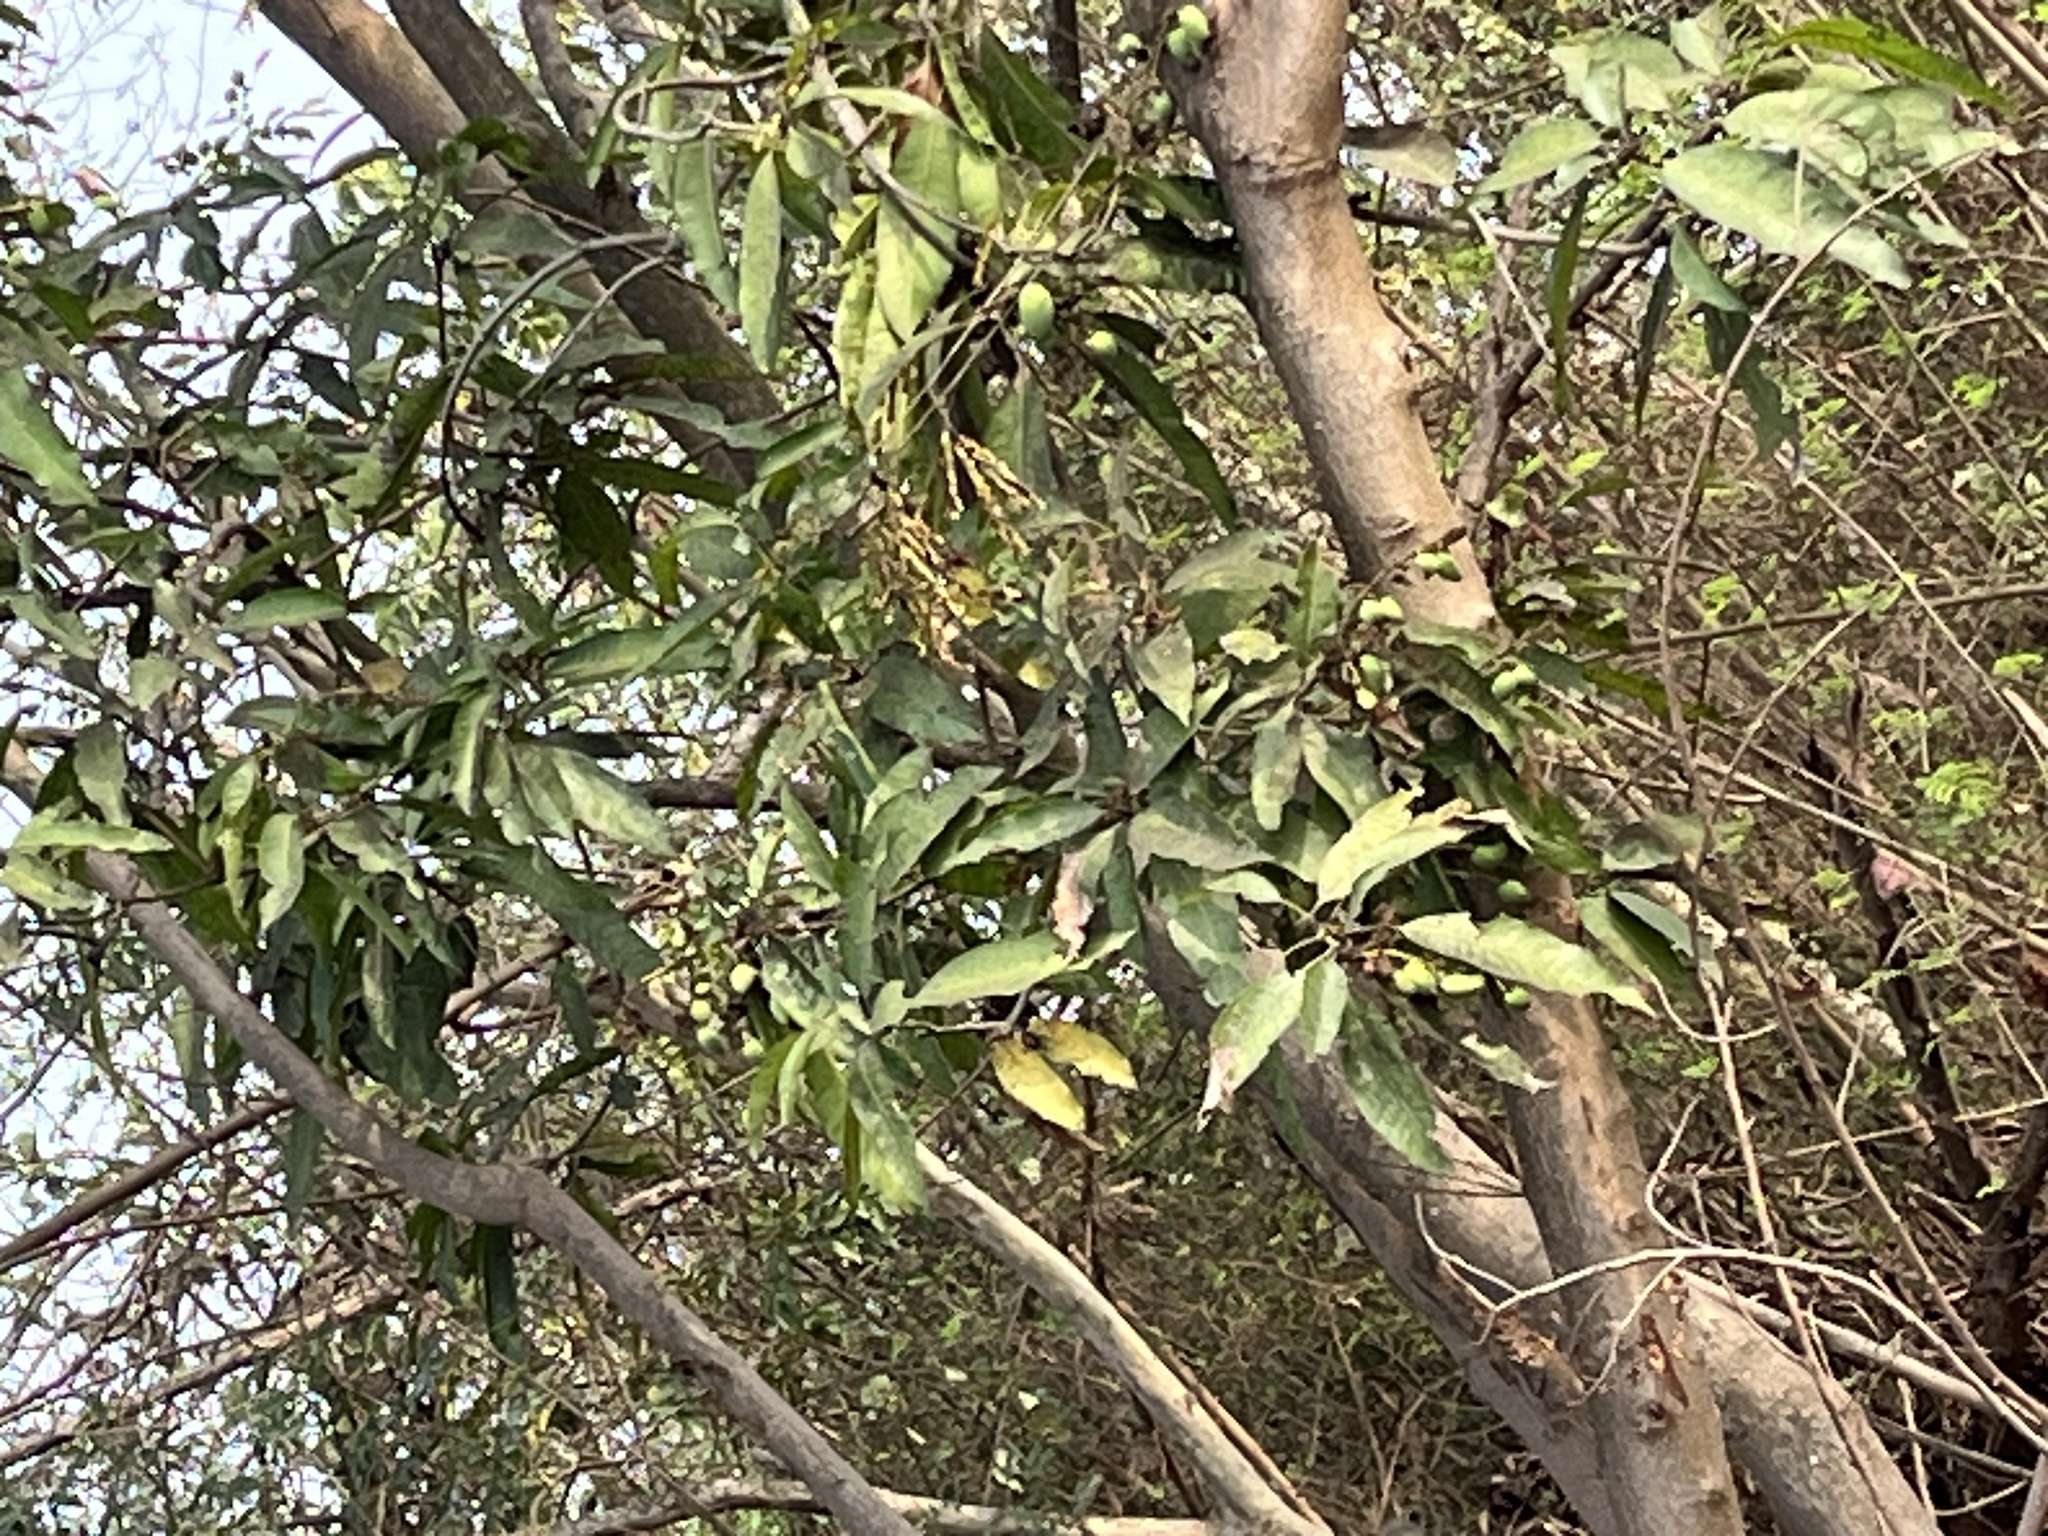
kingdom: Plantae
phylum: Tracheophyta
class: Magnoliopsida
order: Boraginales
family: Cordiaceae
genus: Cordia
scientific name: Cordia dichotoma
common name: Fragrant manjack
